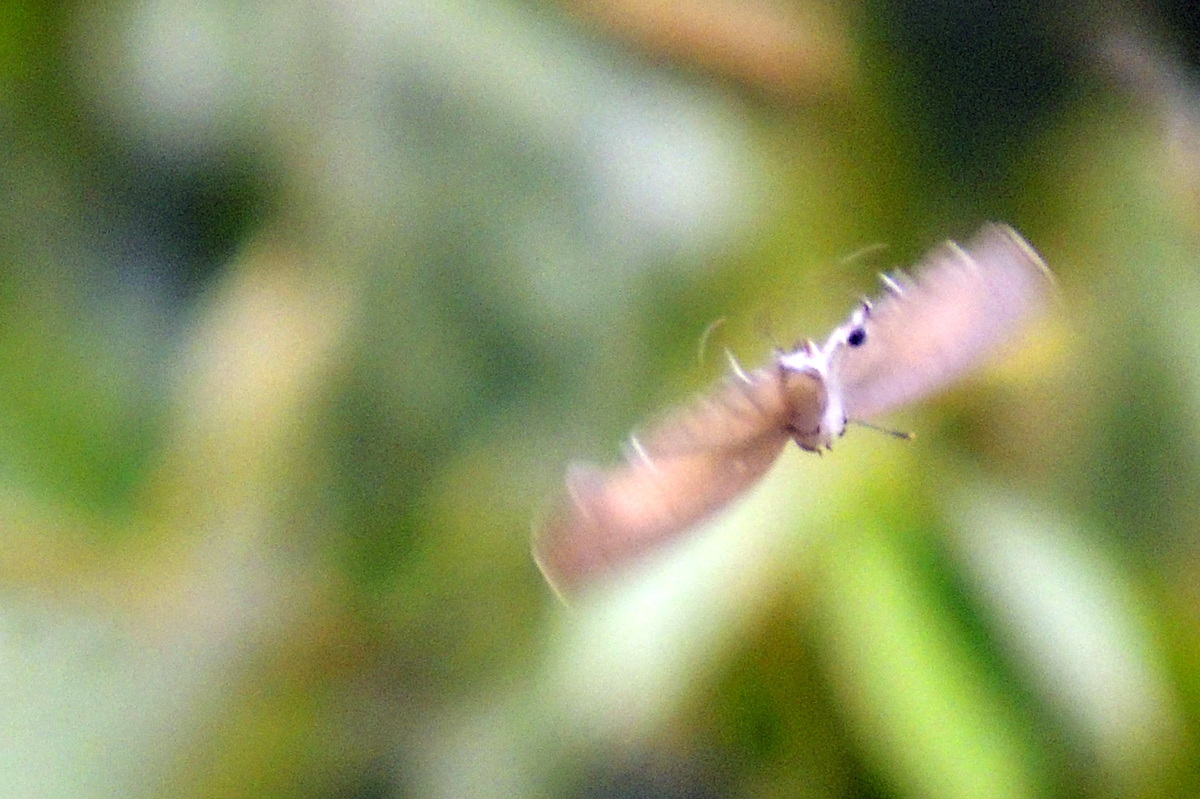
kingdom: Animalia
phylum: Arthropoda
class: Insecta
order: Lepidoptera
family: Lycaenidae
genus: Tajuria
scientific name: Tajuria cippus
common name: Peacock royal
